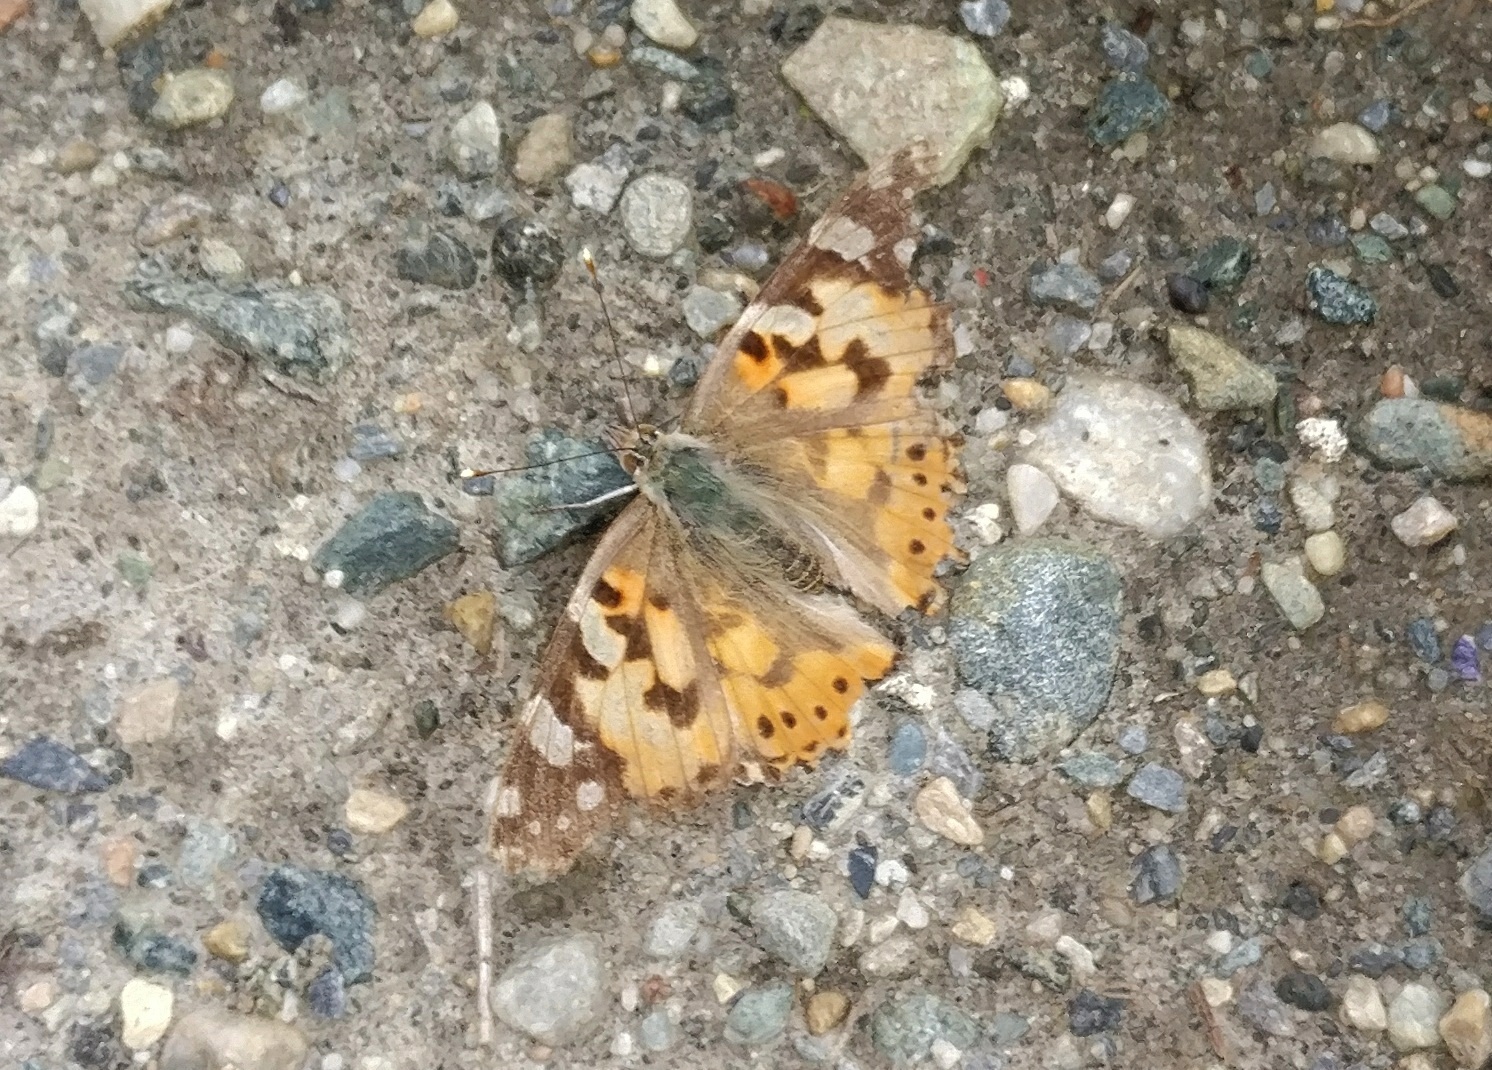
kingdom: Animalia
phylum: Arthropoda
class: Insecta
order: Lepidoptera
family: Nymphalidae
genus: Vanessa
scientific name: Vanessa cardui
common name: Painted lady
